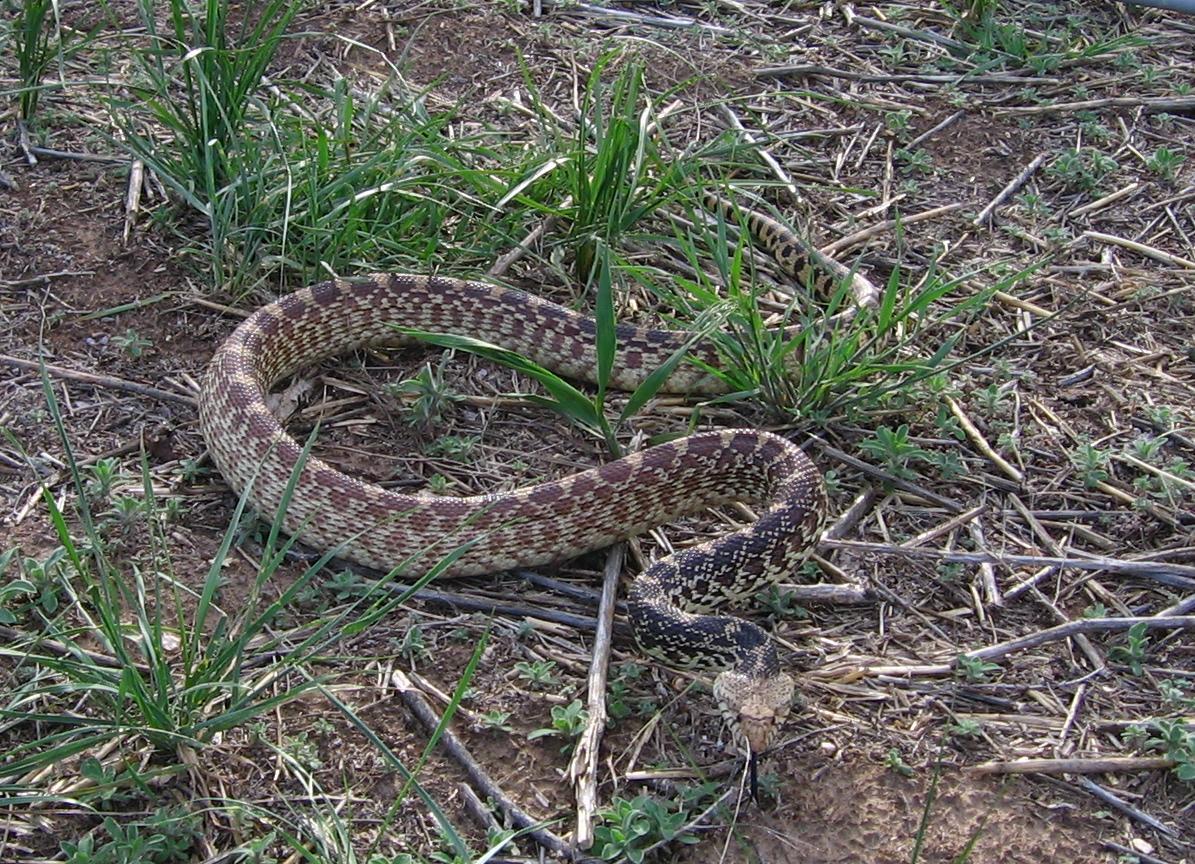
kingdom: Animalia
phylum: Chordata
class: Squamata
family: Colubridae
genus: Pituophis
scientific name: Pituophis catenifer
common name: Gopher snake
